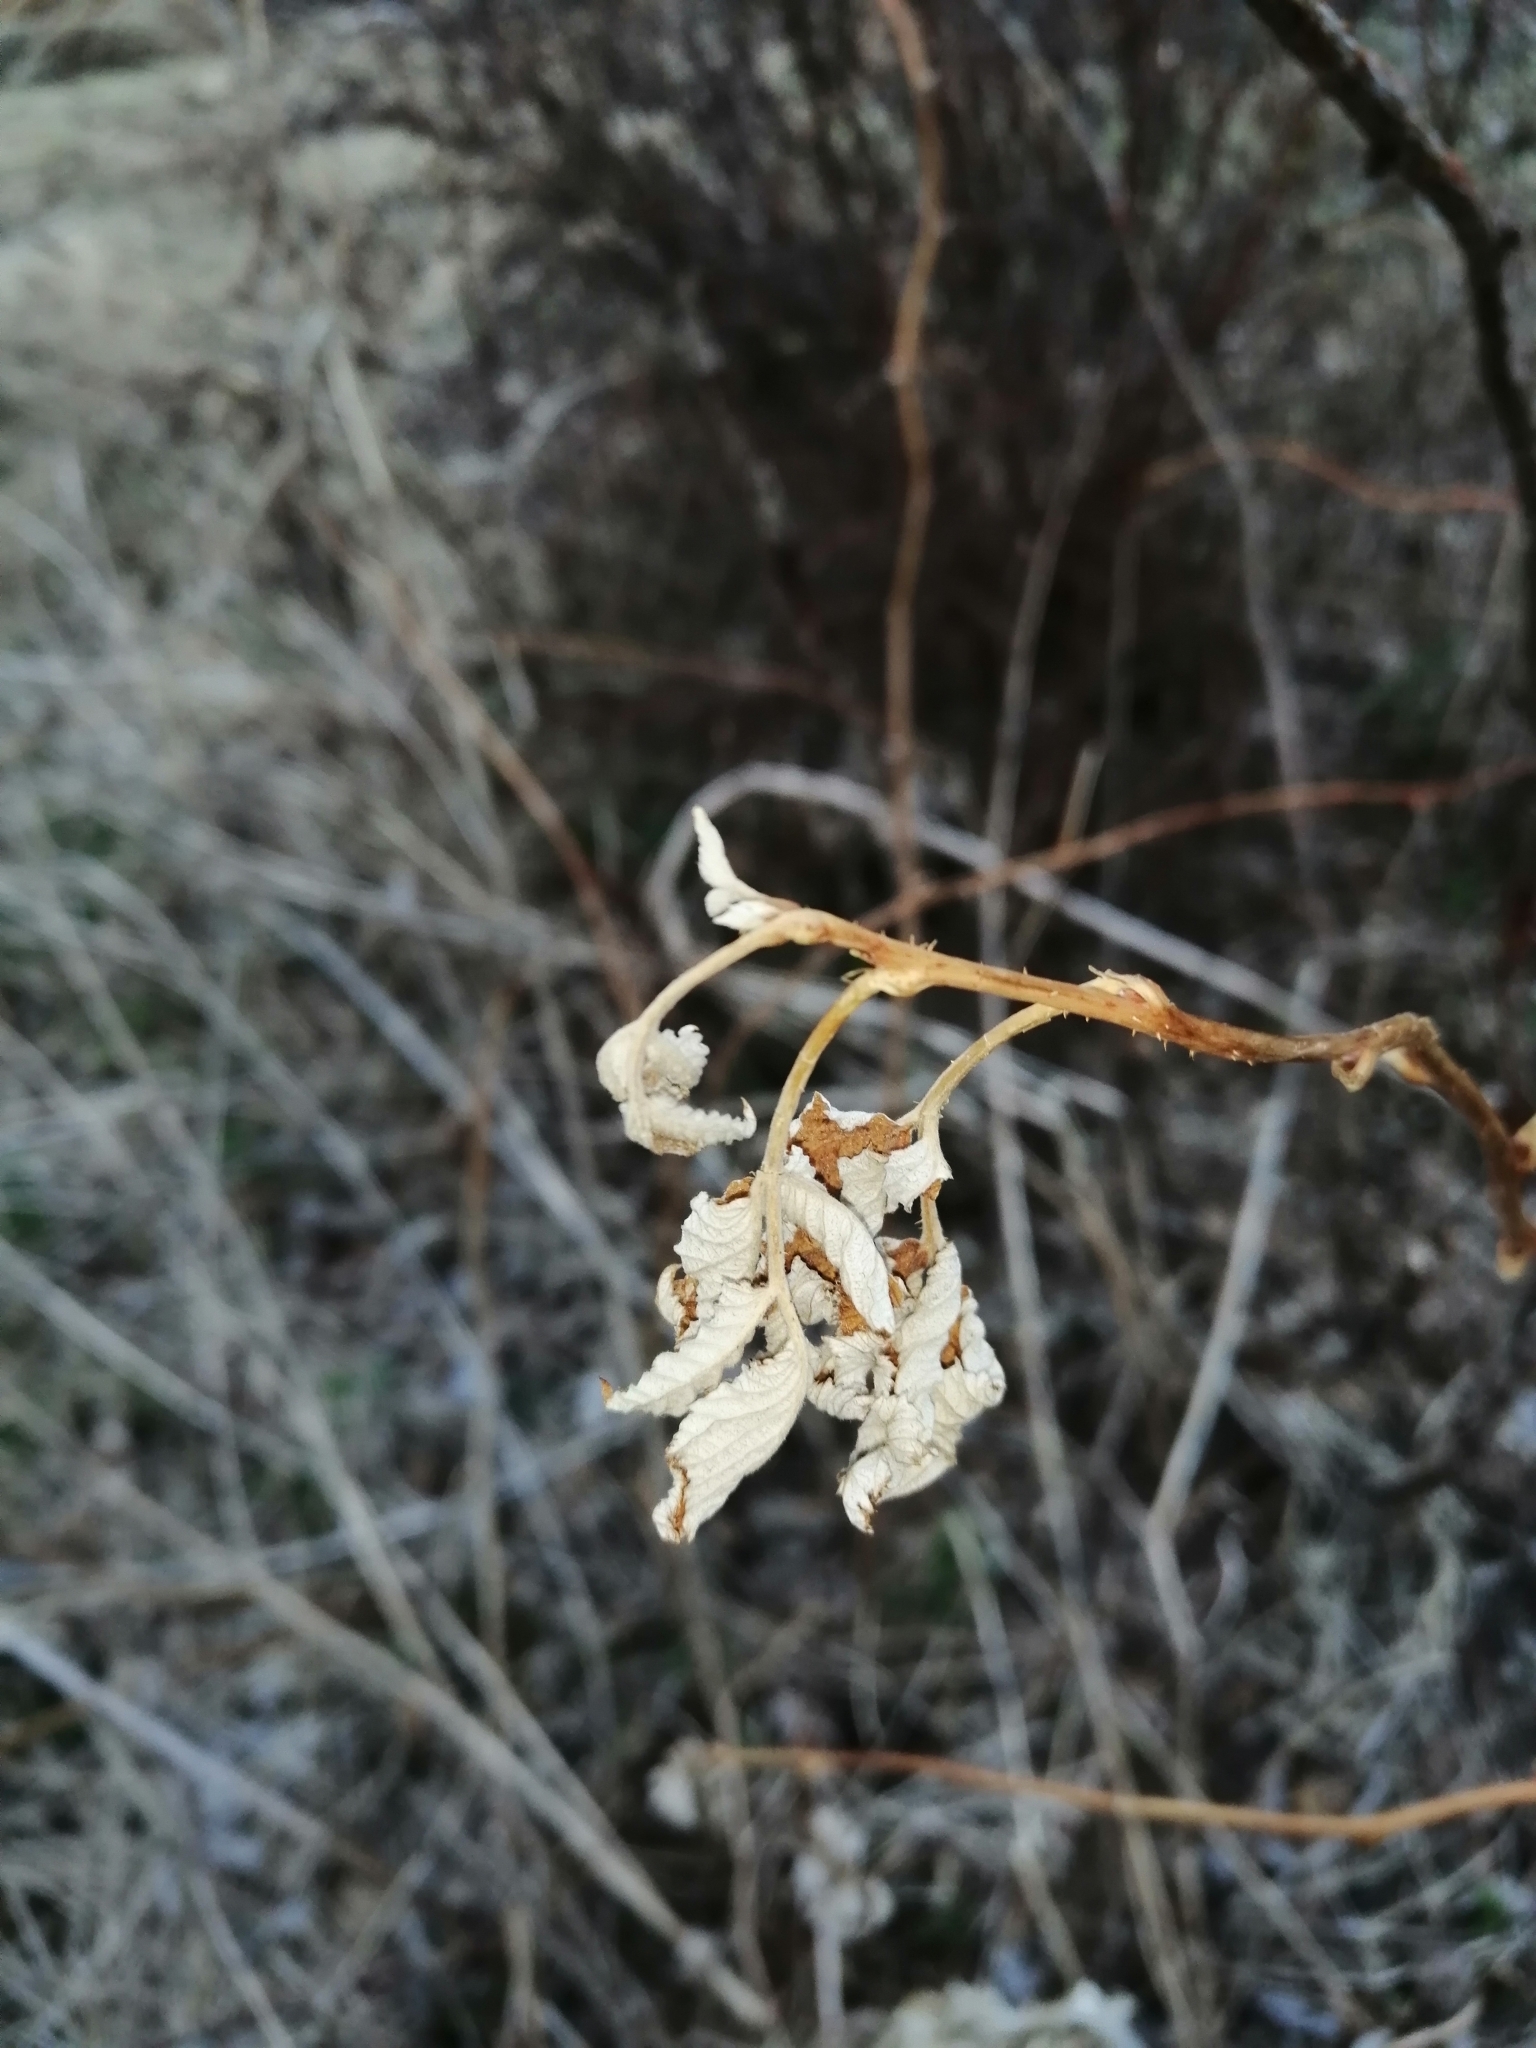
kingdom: Plantae
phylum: Tracheophyta
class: Magnoliopsida
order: Rosales
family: Rosaceae
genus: Rubus
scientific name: Rubus idaeus
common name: Raspberry
